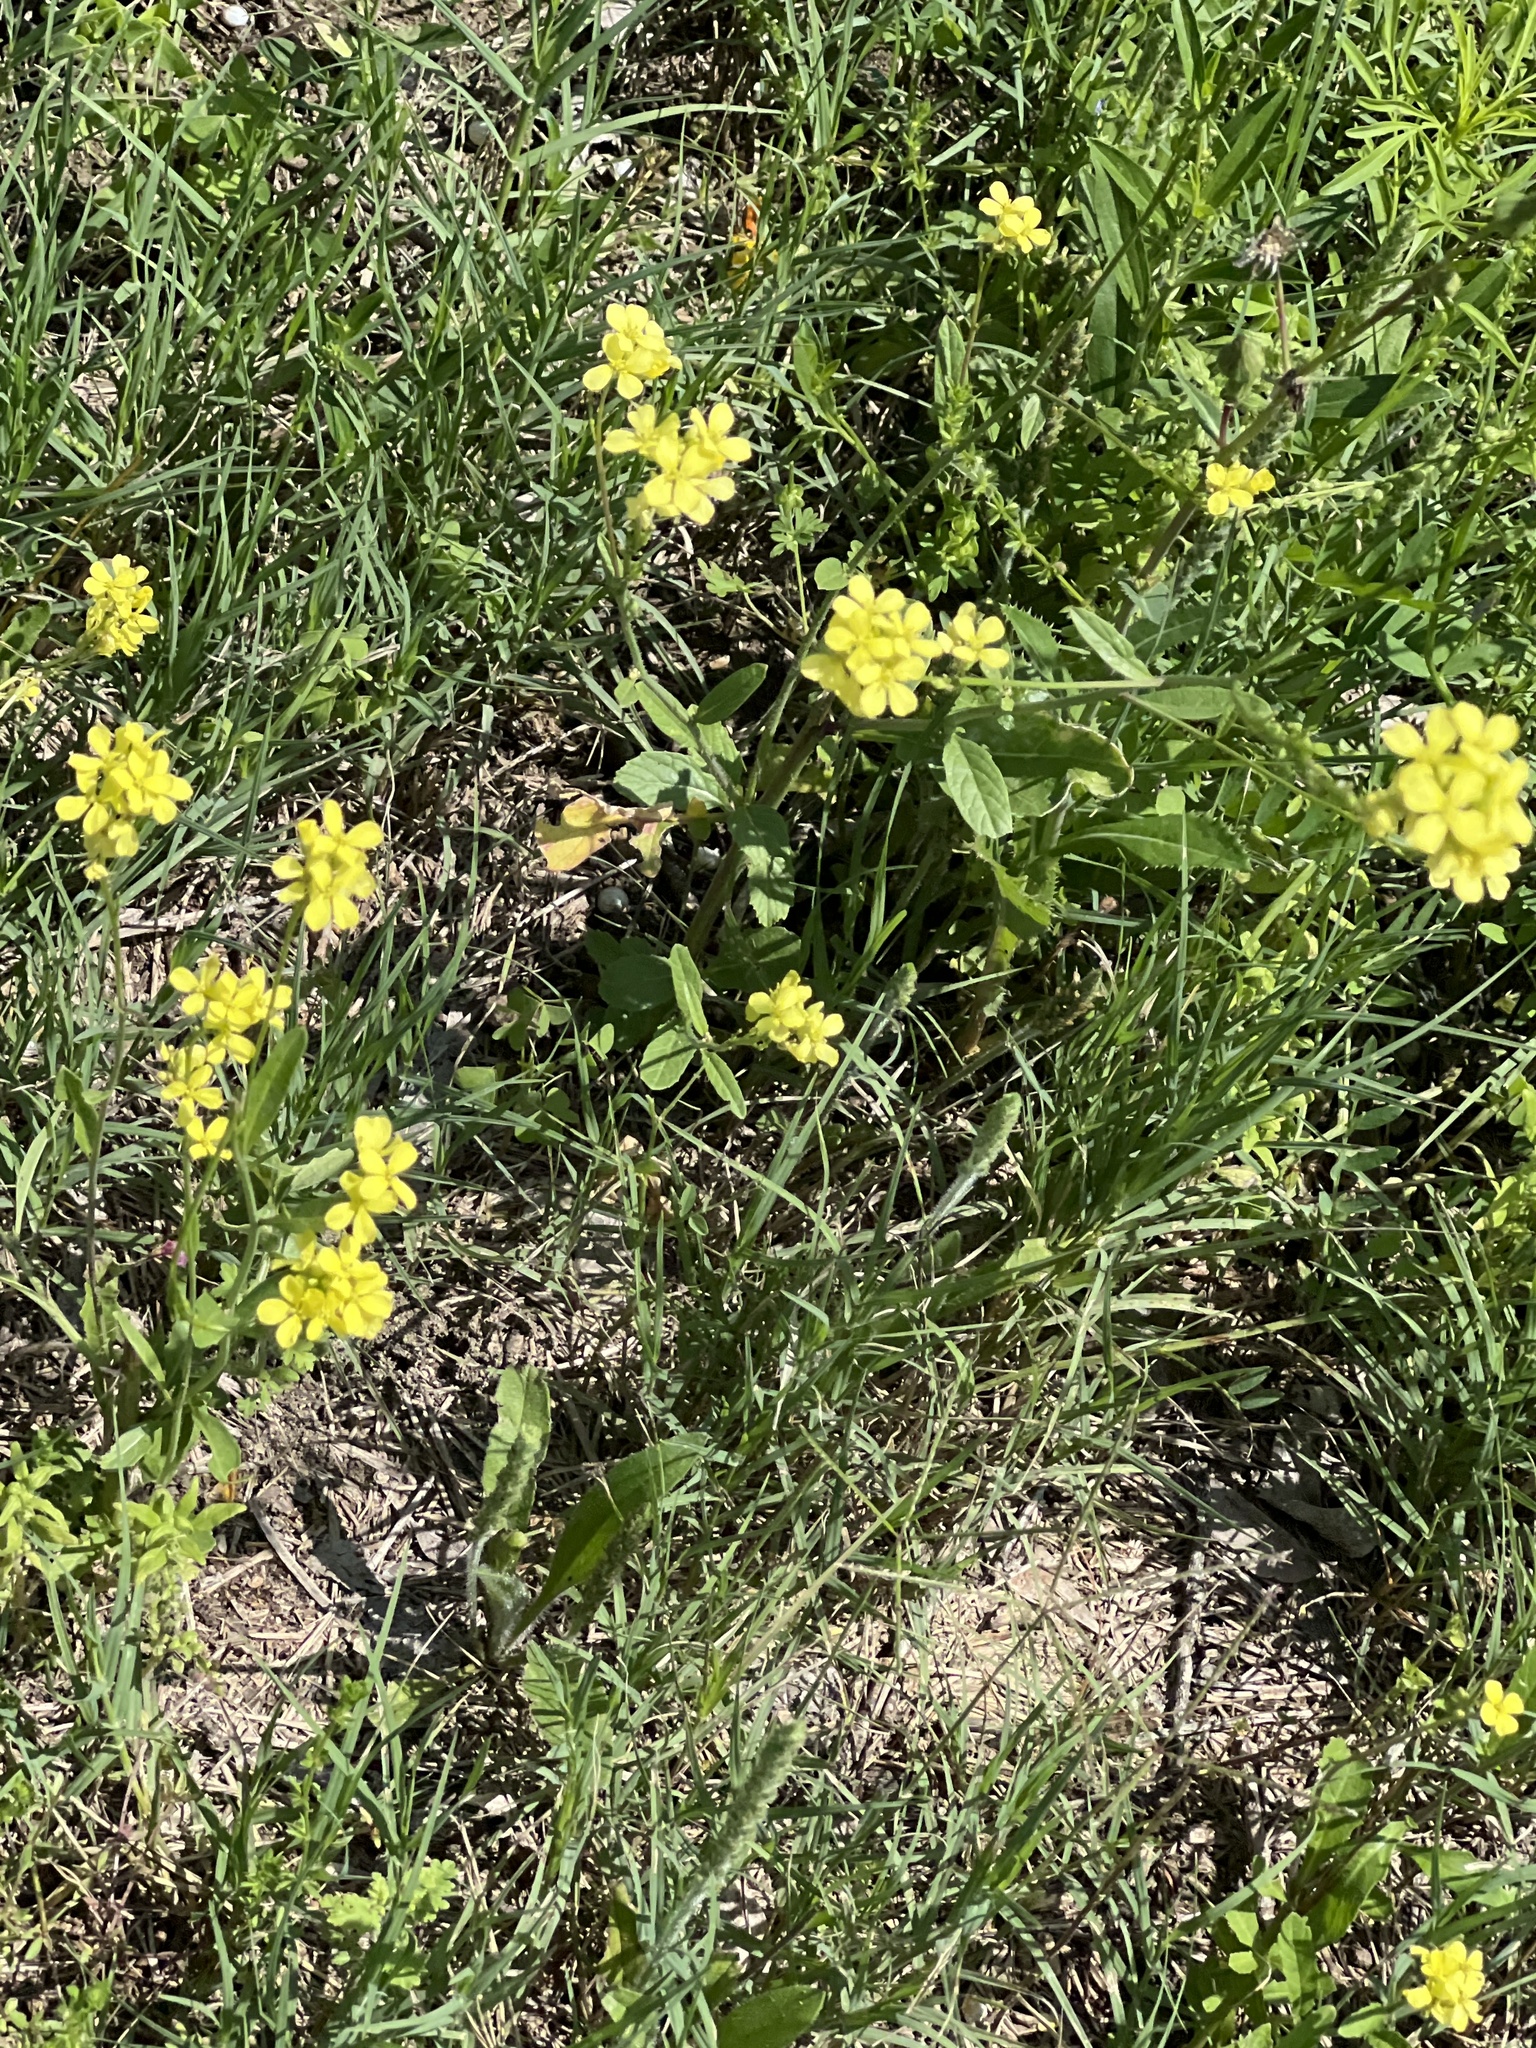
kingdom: Plantae
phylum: Tracheophyta
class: Magnoliopsida
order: Brassicales
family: Brassicaceae
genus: Rapistrum
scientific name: Rapistrum rugosum
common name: Annual bastardcabbage
